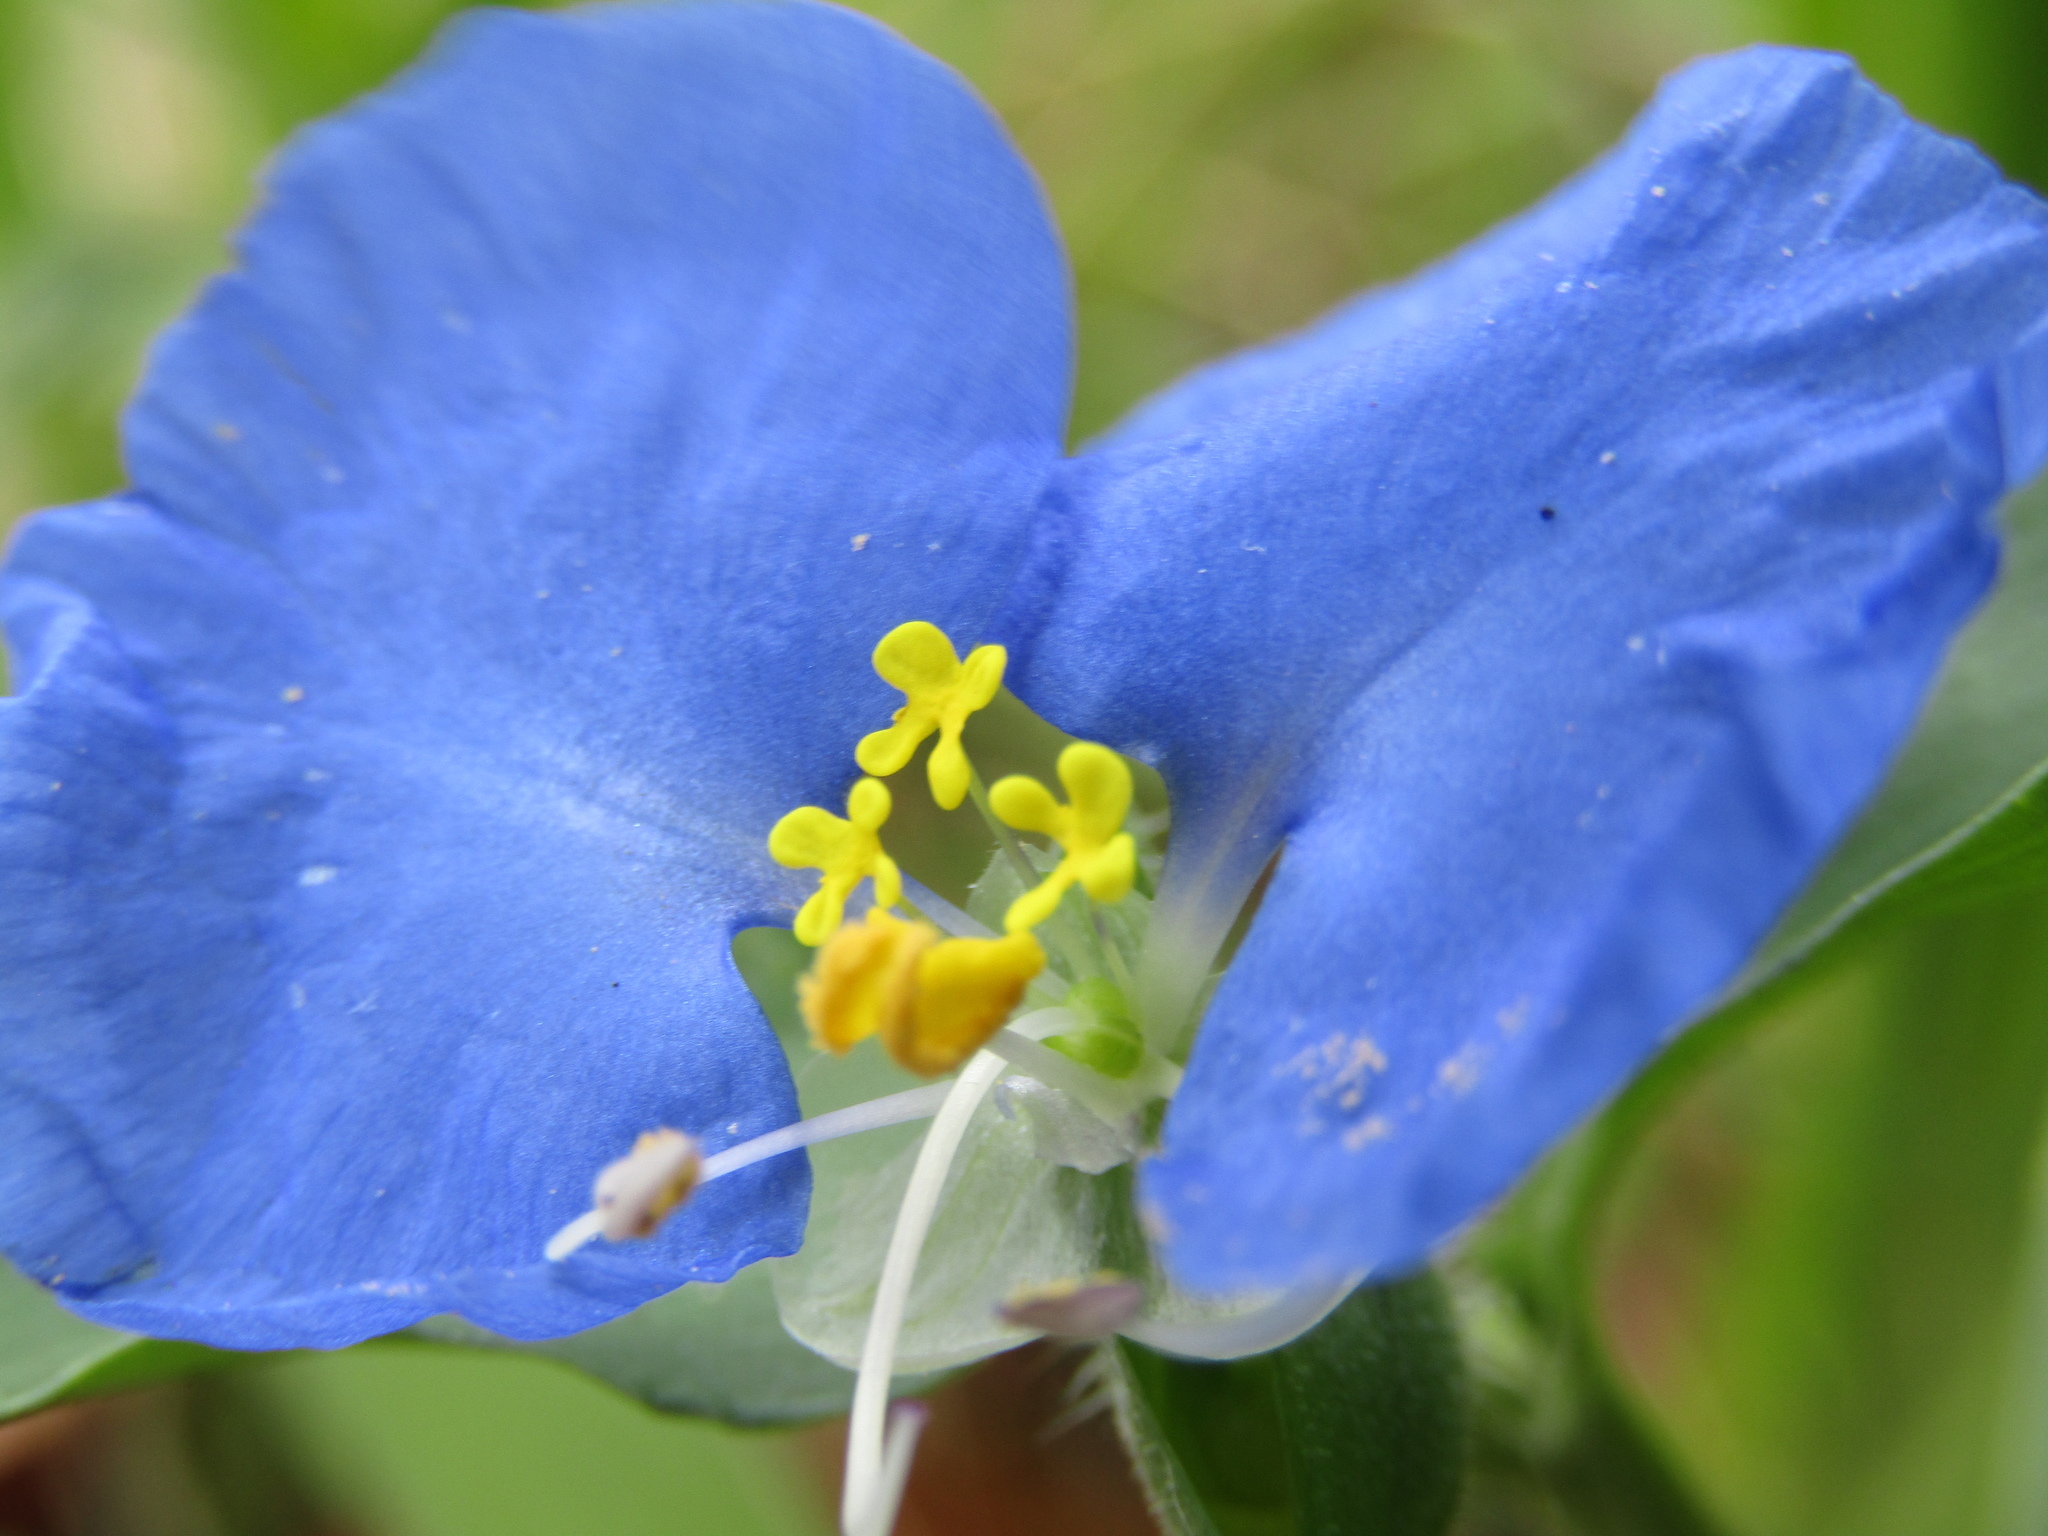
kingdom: Plantae
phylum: Tracheophyta
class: Liliopsida
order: Commelinales
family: Commelinaceae
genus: Commelina
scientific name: Commelina erecta
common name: Blousel blommetjie
